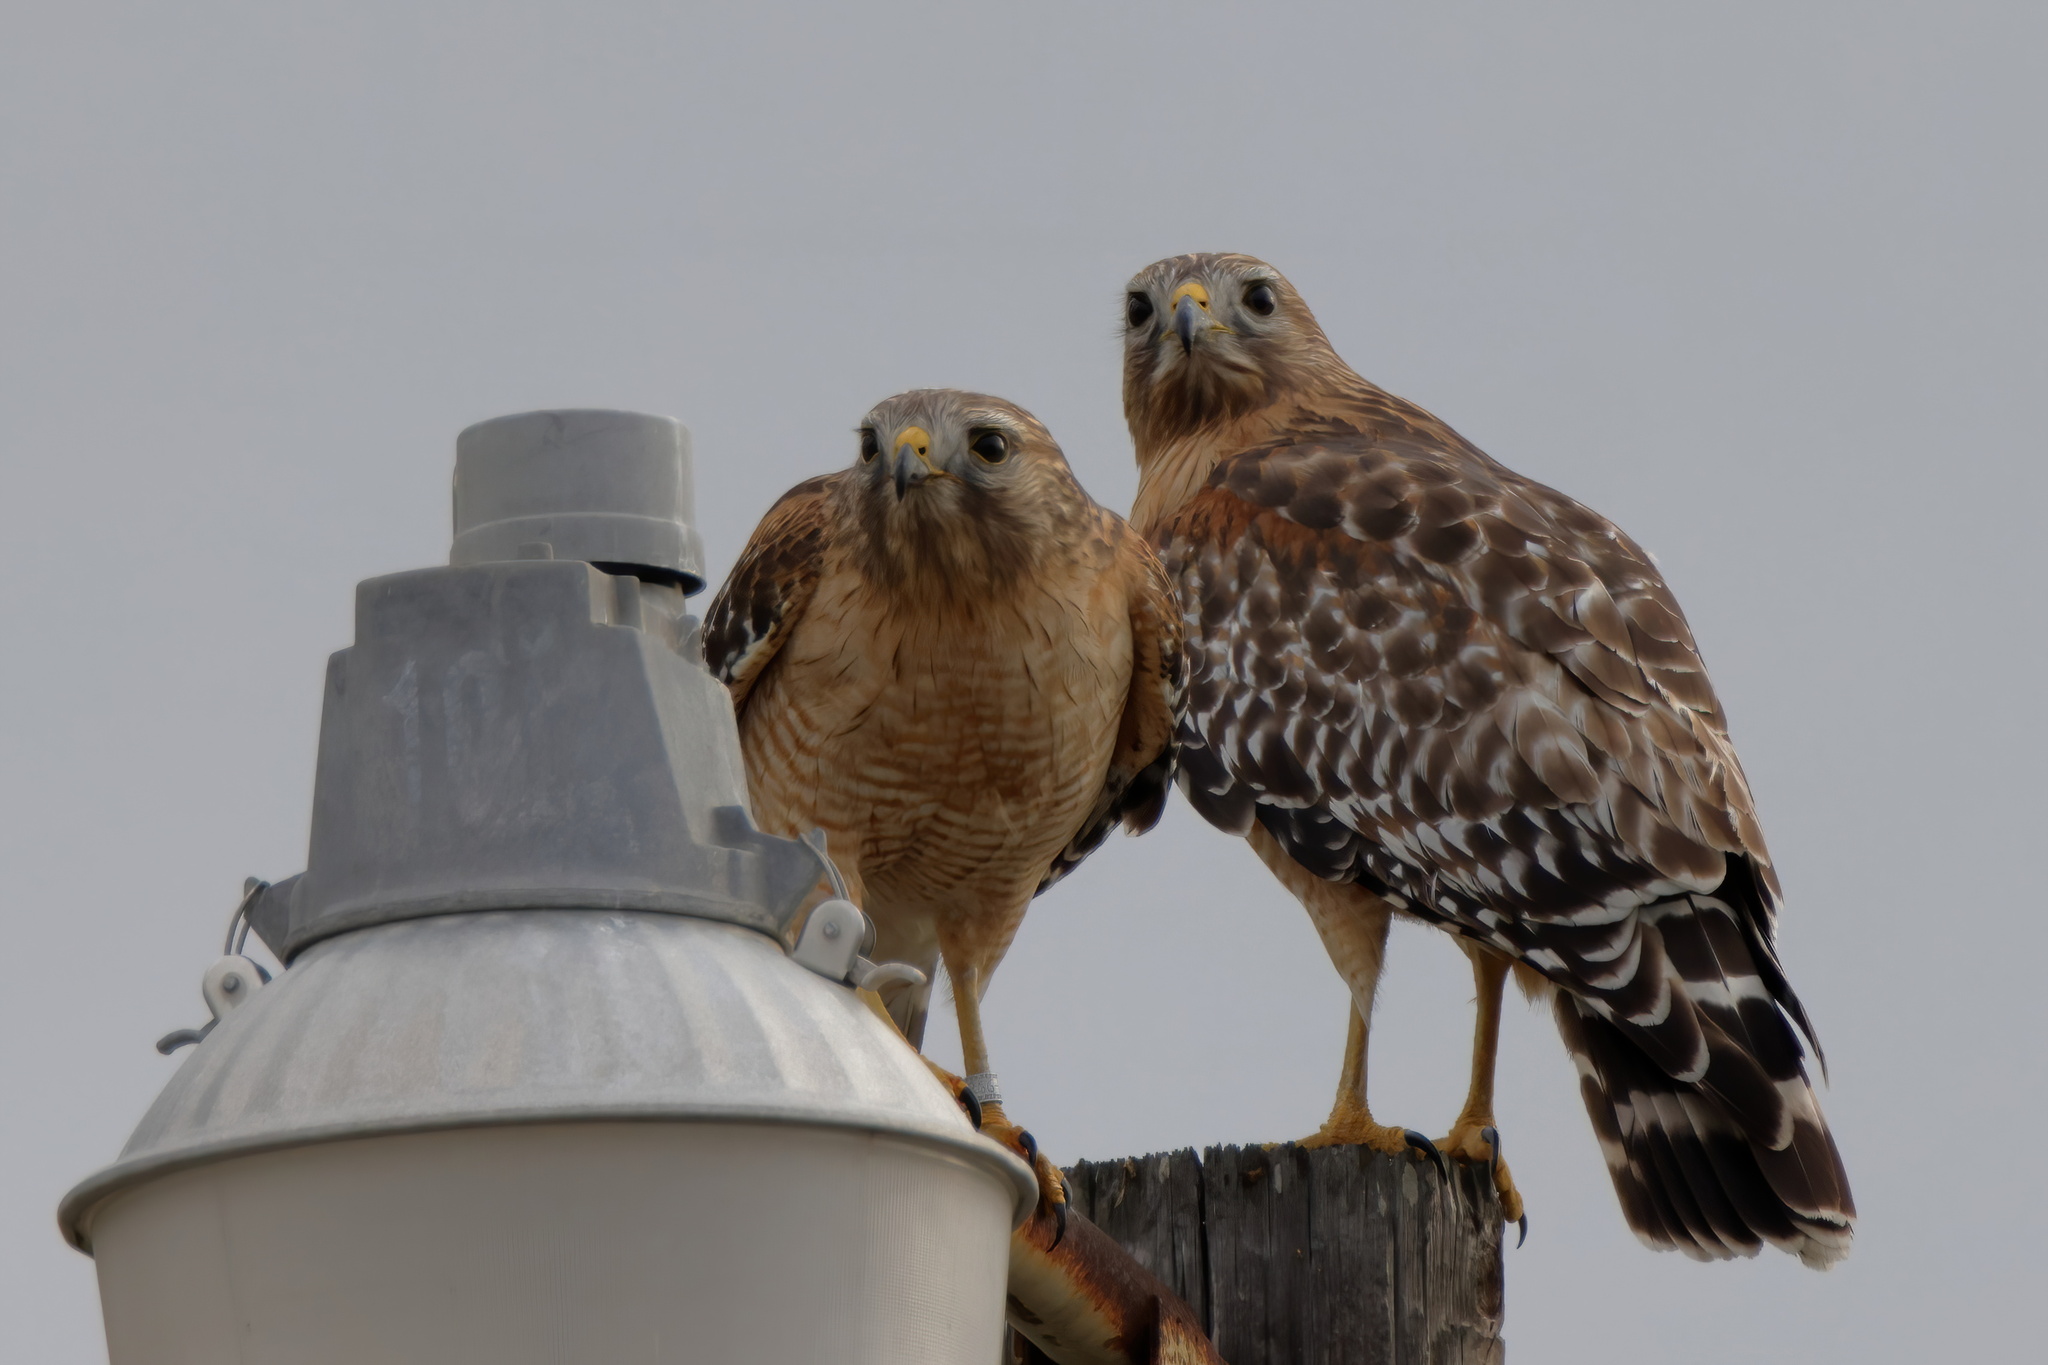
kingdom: Animalia
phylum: Chordata
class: Aves
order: Accipitriformes
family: Accipitridae
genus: Buteo
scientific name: Buteo lineatus
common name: Red-shouldered hawk
